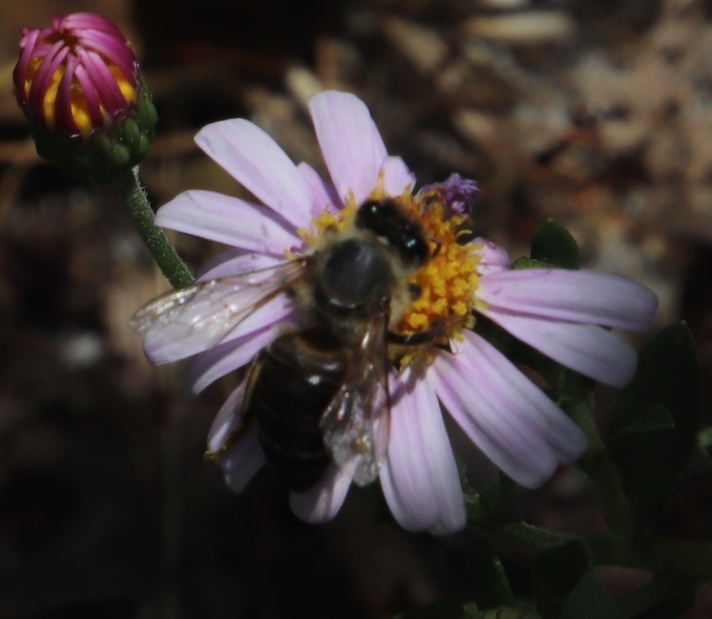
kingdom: Animalia
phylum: Arthropoda
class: Insecta
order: Hymenoptera
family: Apidae
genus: Apis
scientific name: Apis mellifera
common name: Honey bee
